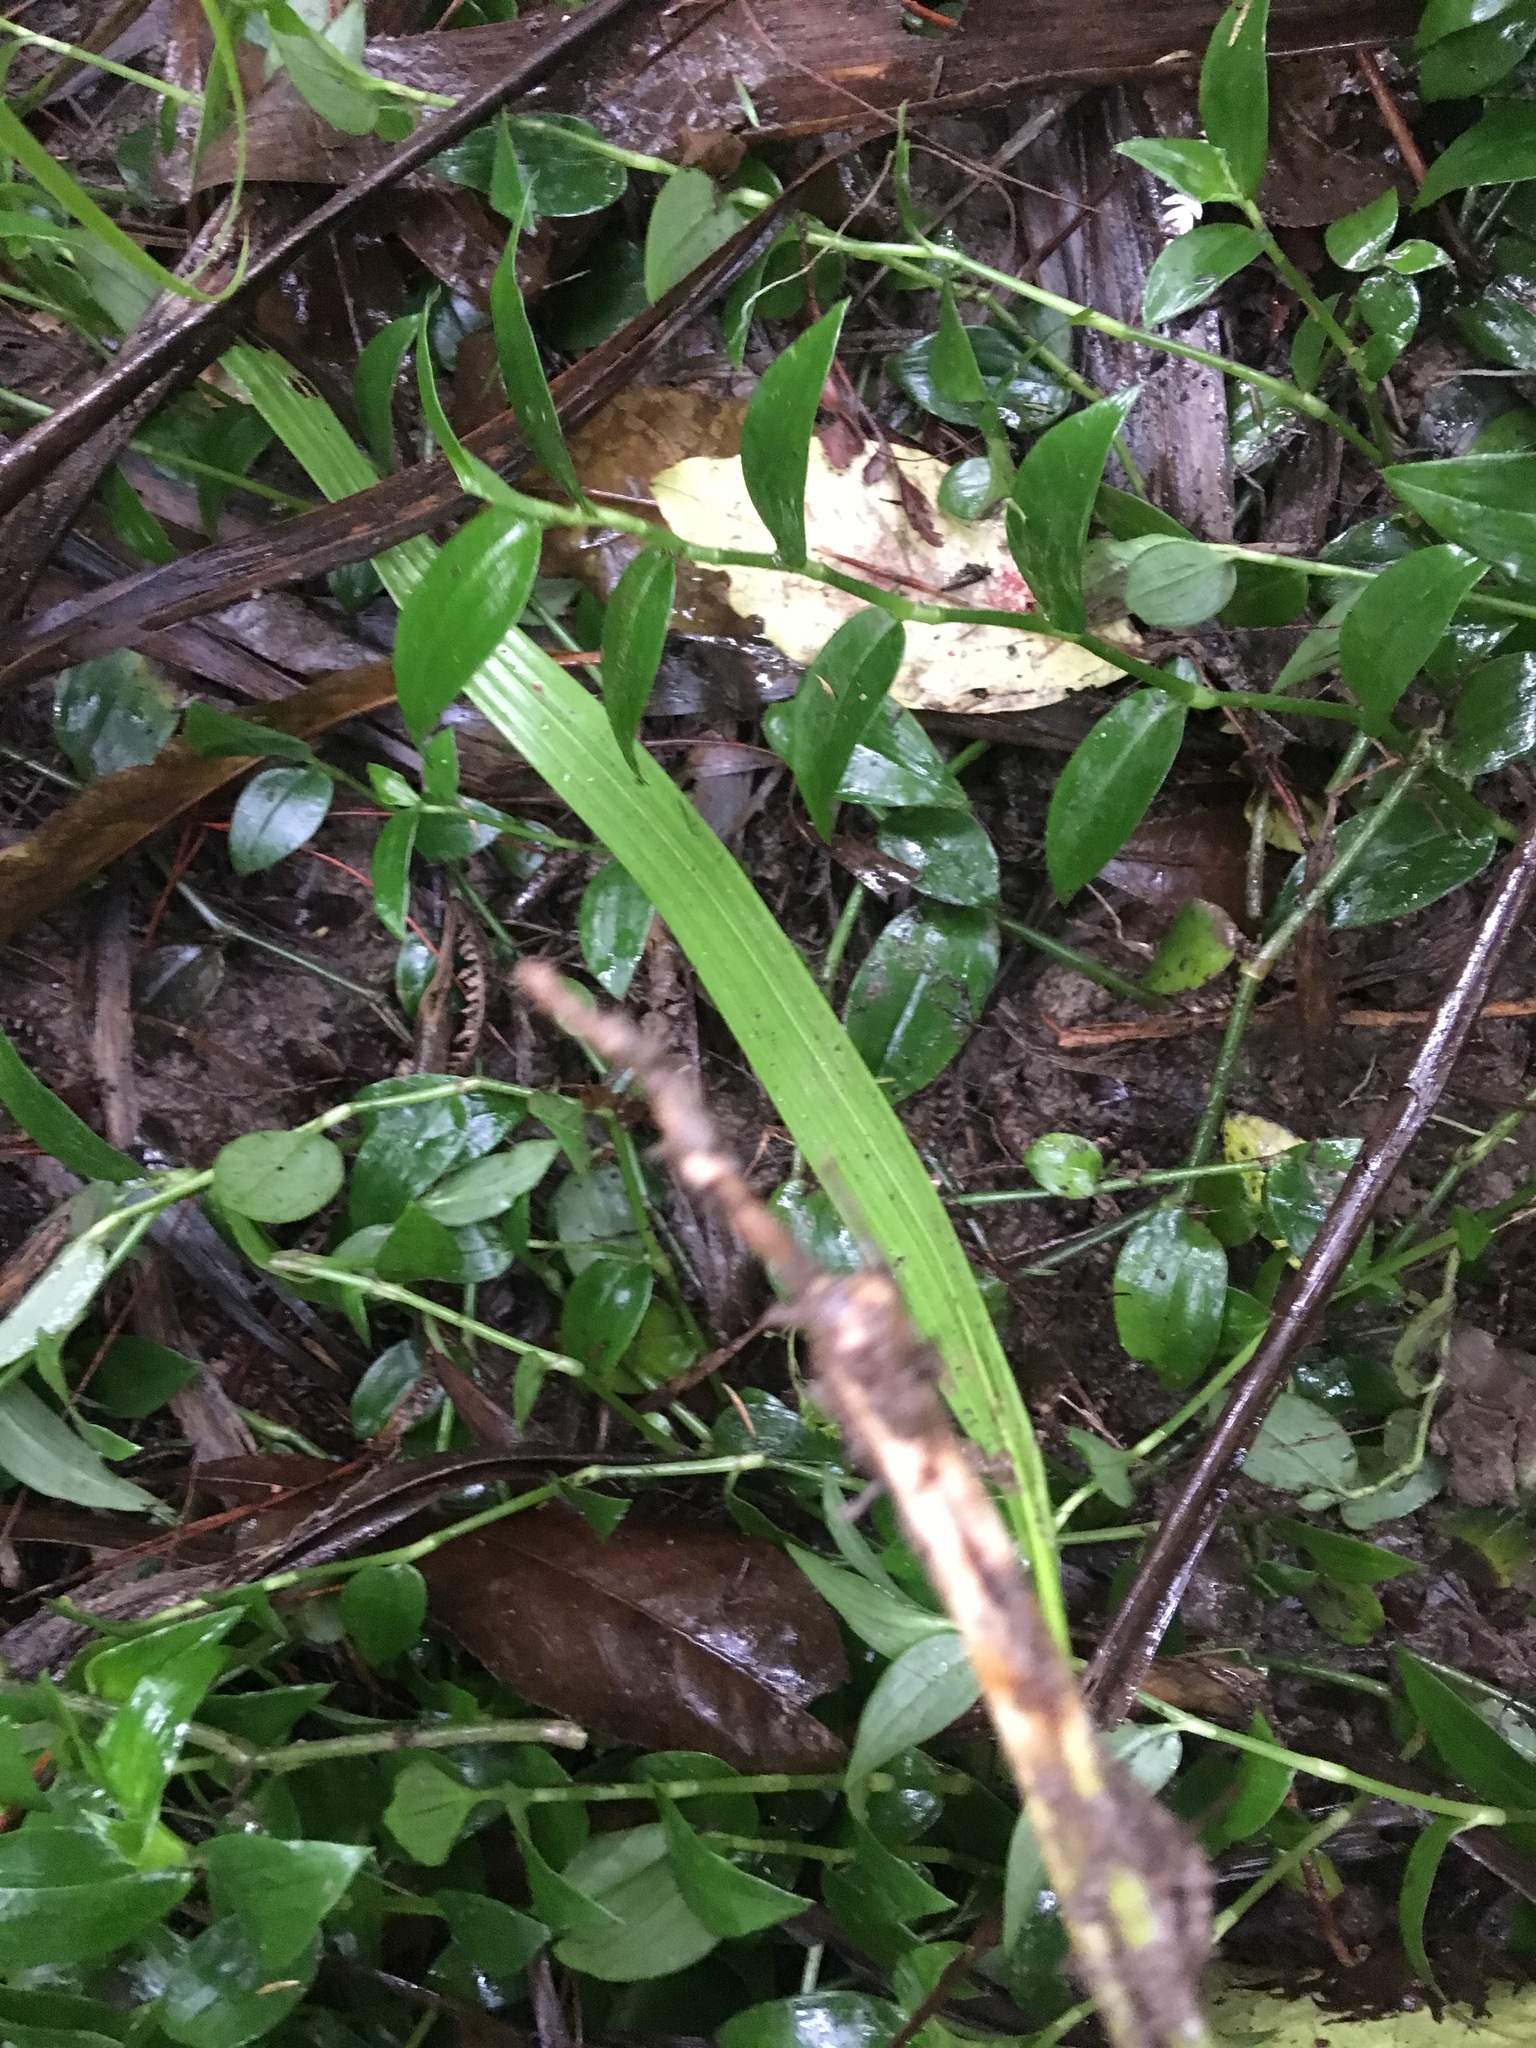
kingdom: Plantae
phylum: Tracheophyta
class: Liliopsida
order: Arecales
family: Arecaceae
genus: Phoenix
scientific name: Phoenix canariensis
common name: Canary island date palm
